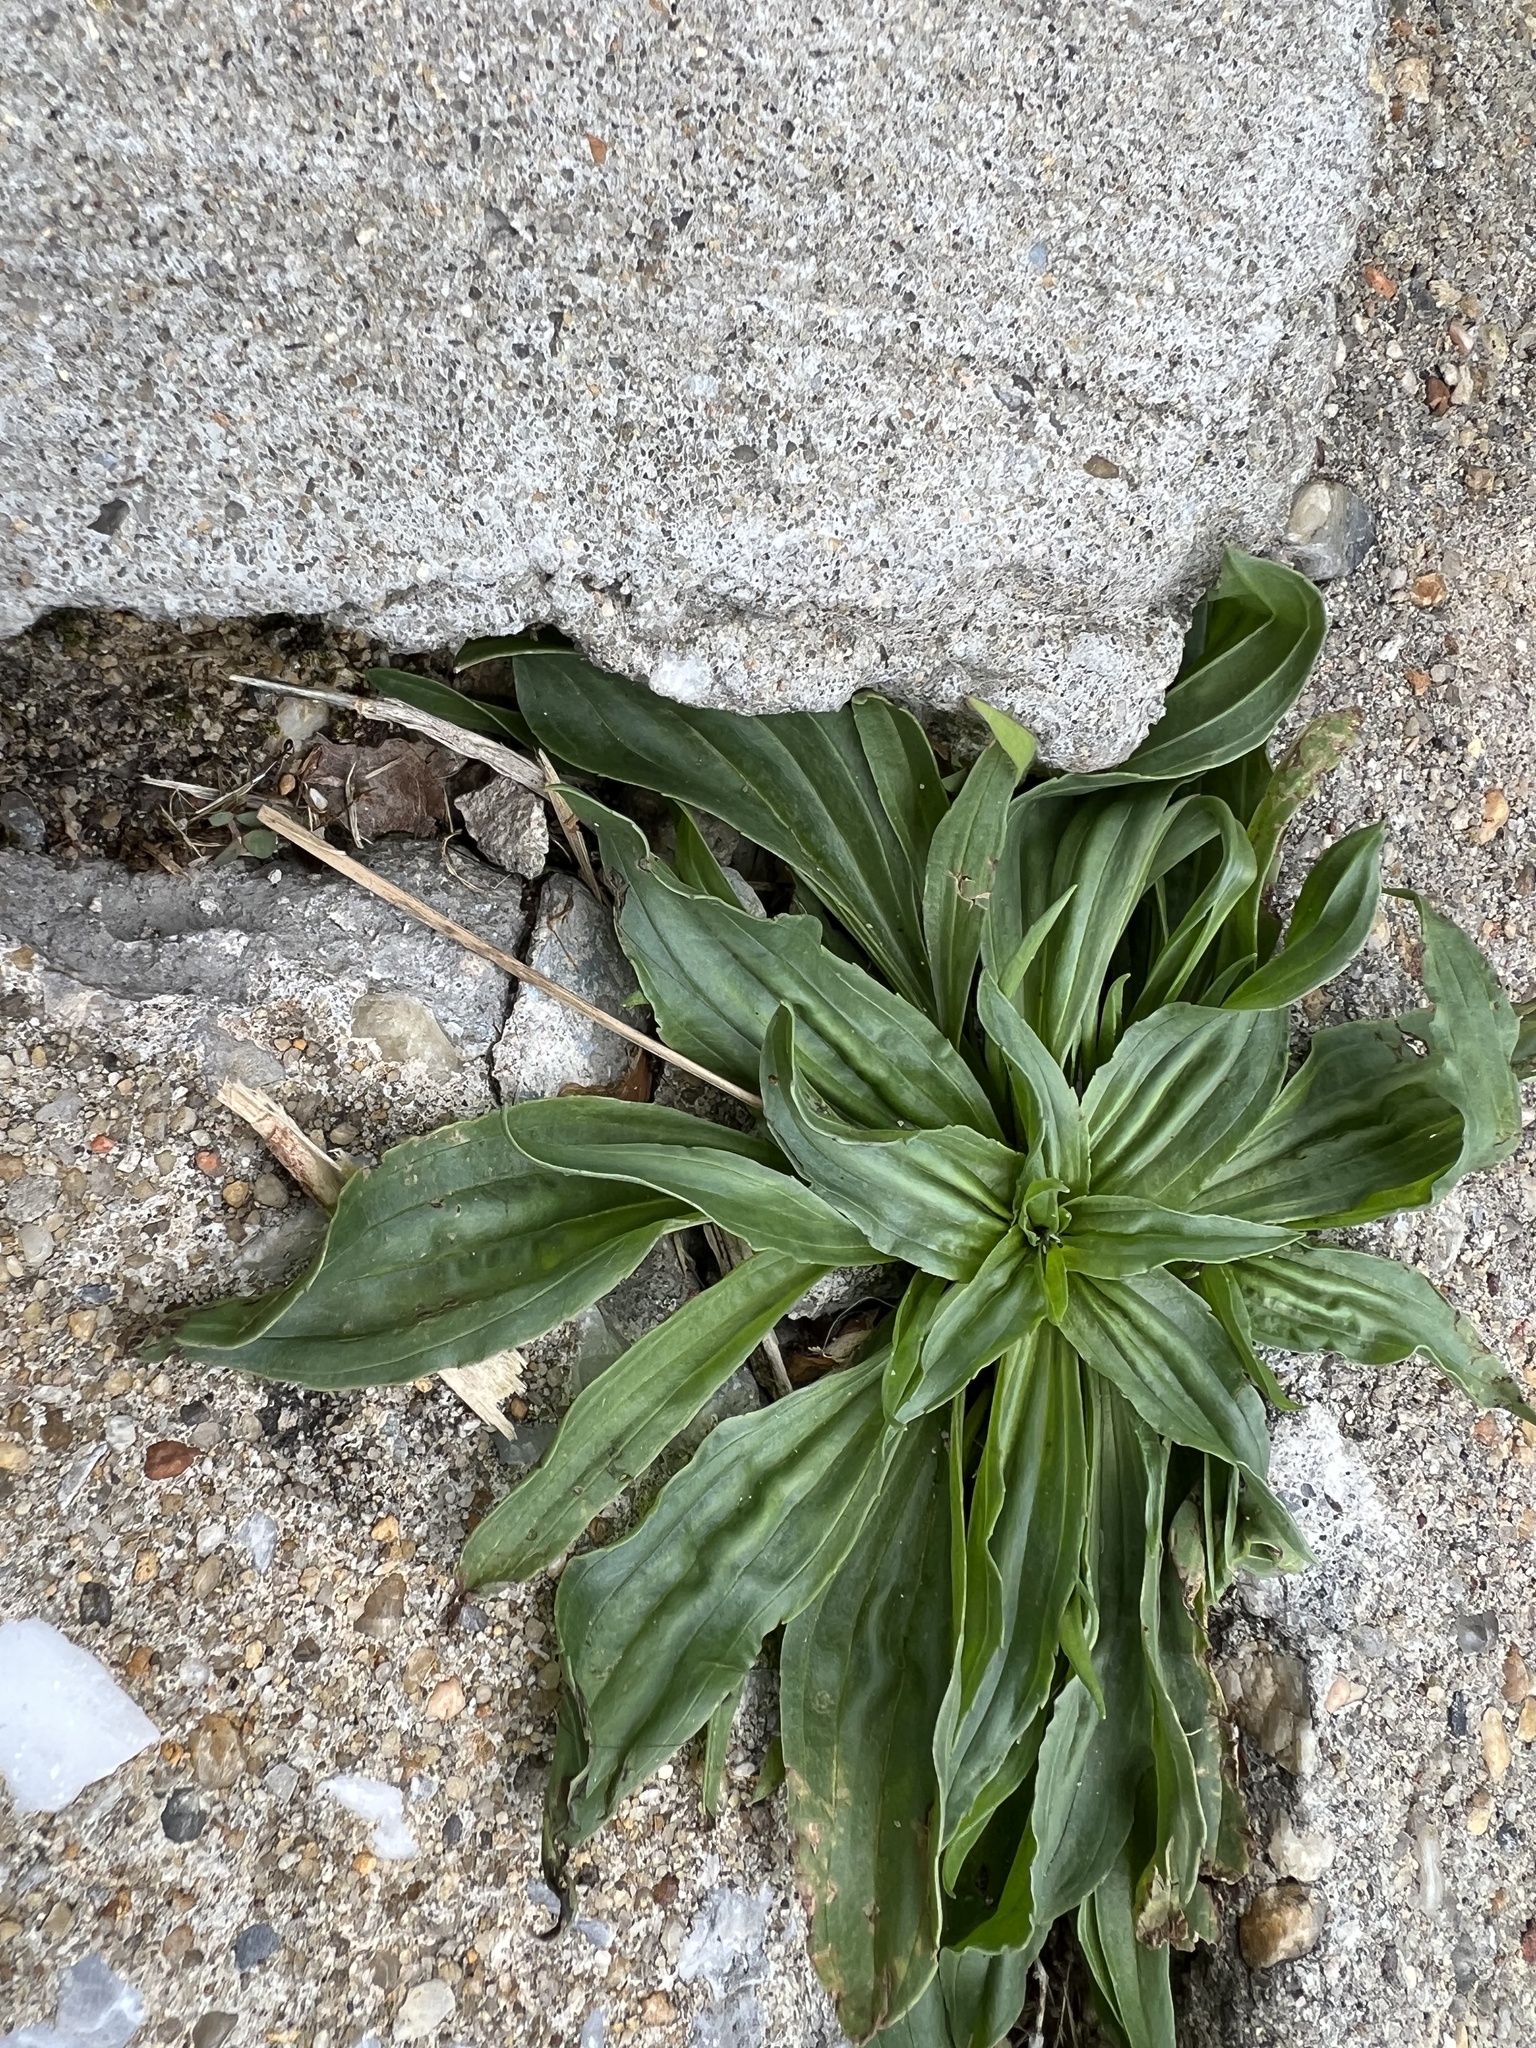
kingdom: Plantae
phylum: Tracheophyta
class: Magnoliopsida
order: Lamiales
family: Plantaginaceae
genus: Plantago
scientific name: Plantago lanceolata
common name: Ribwort plantain
